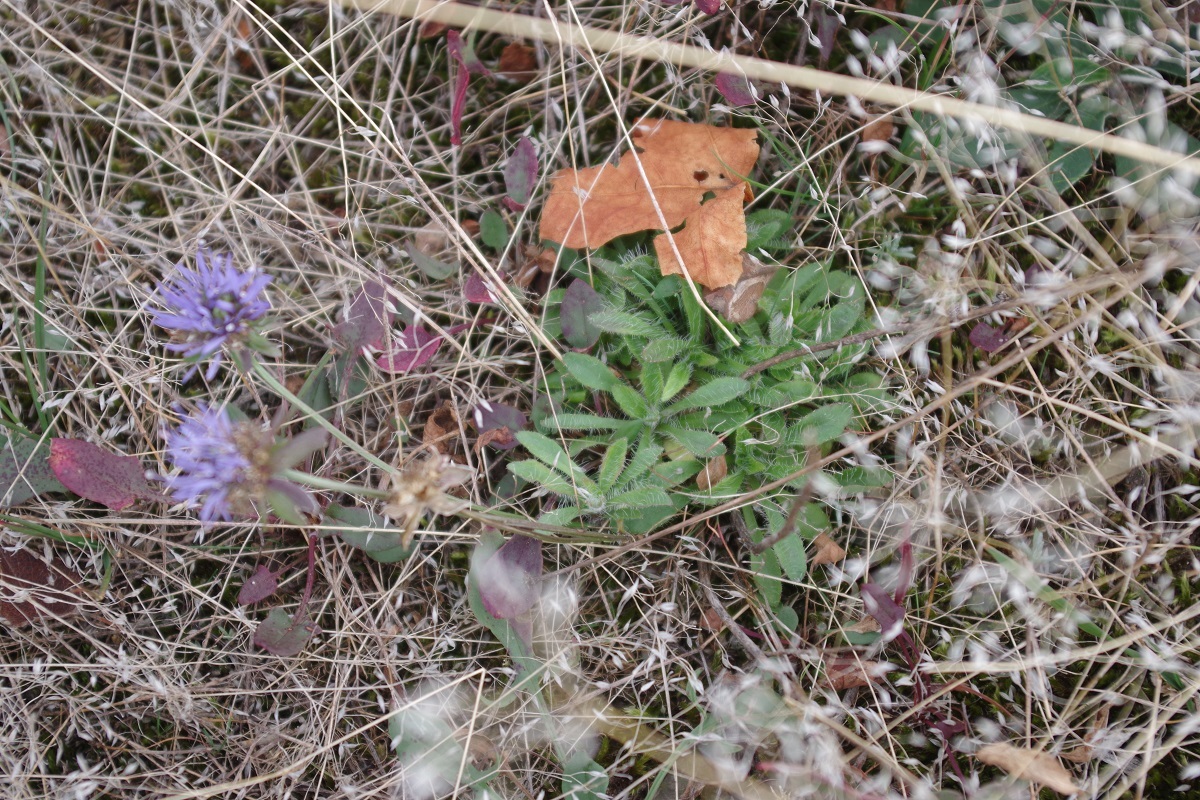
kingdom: Plantae
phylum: Tracheophyta
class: Magnoliopsida
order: Asterales
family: Campanulaceae
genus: Jasione
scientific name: Jasione montana
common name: Sheep's-bit
